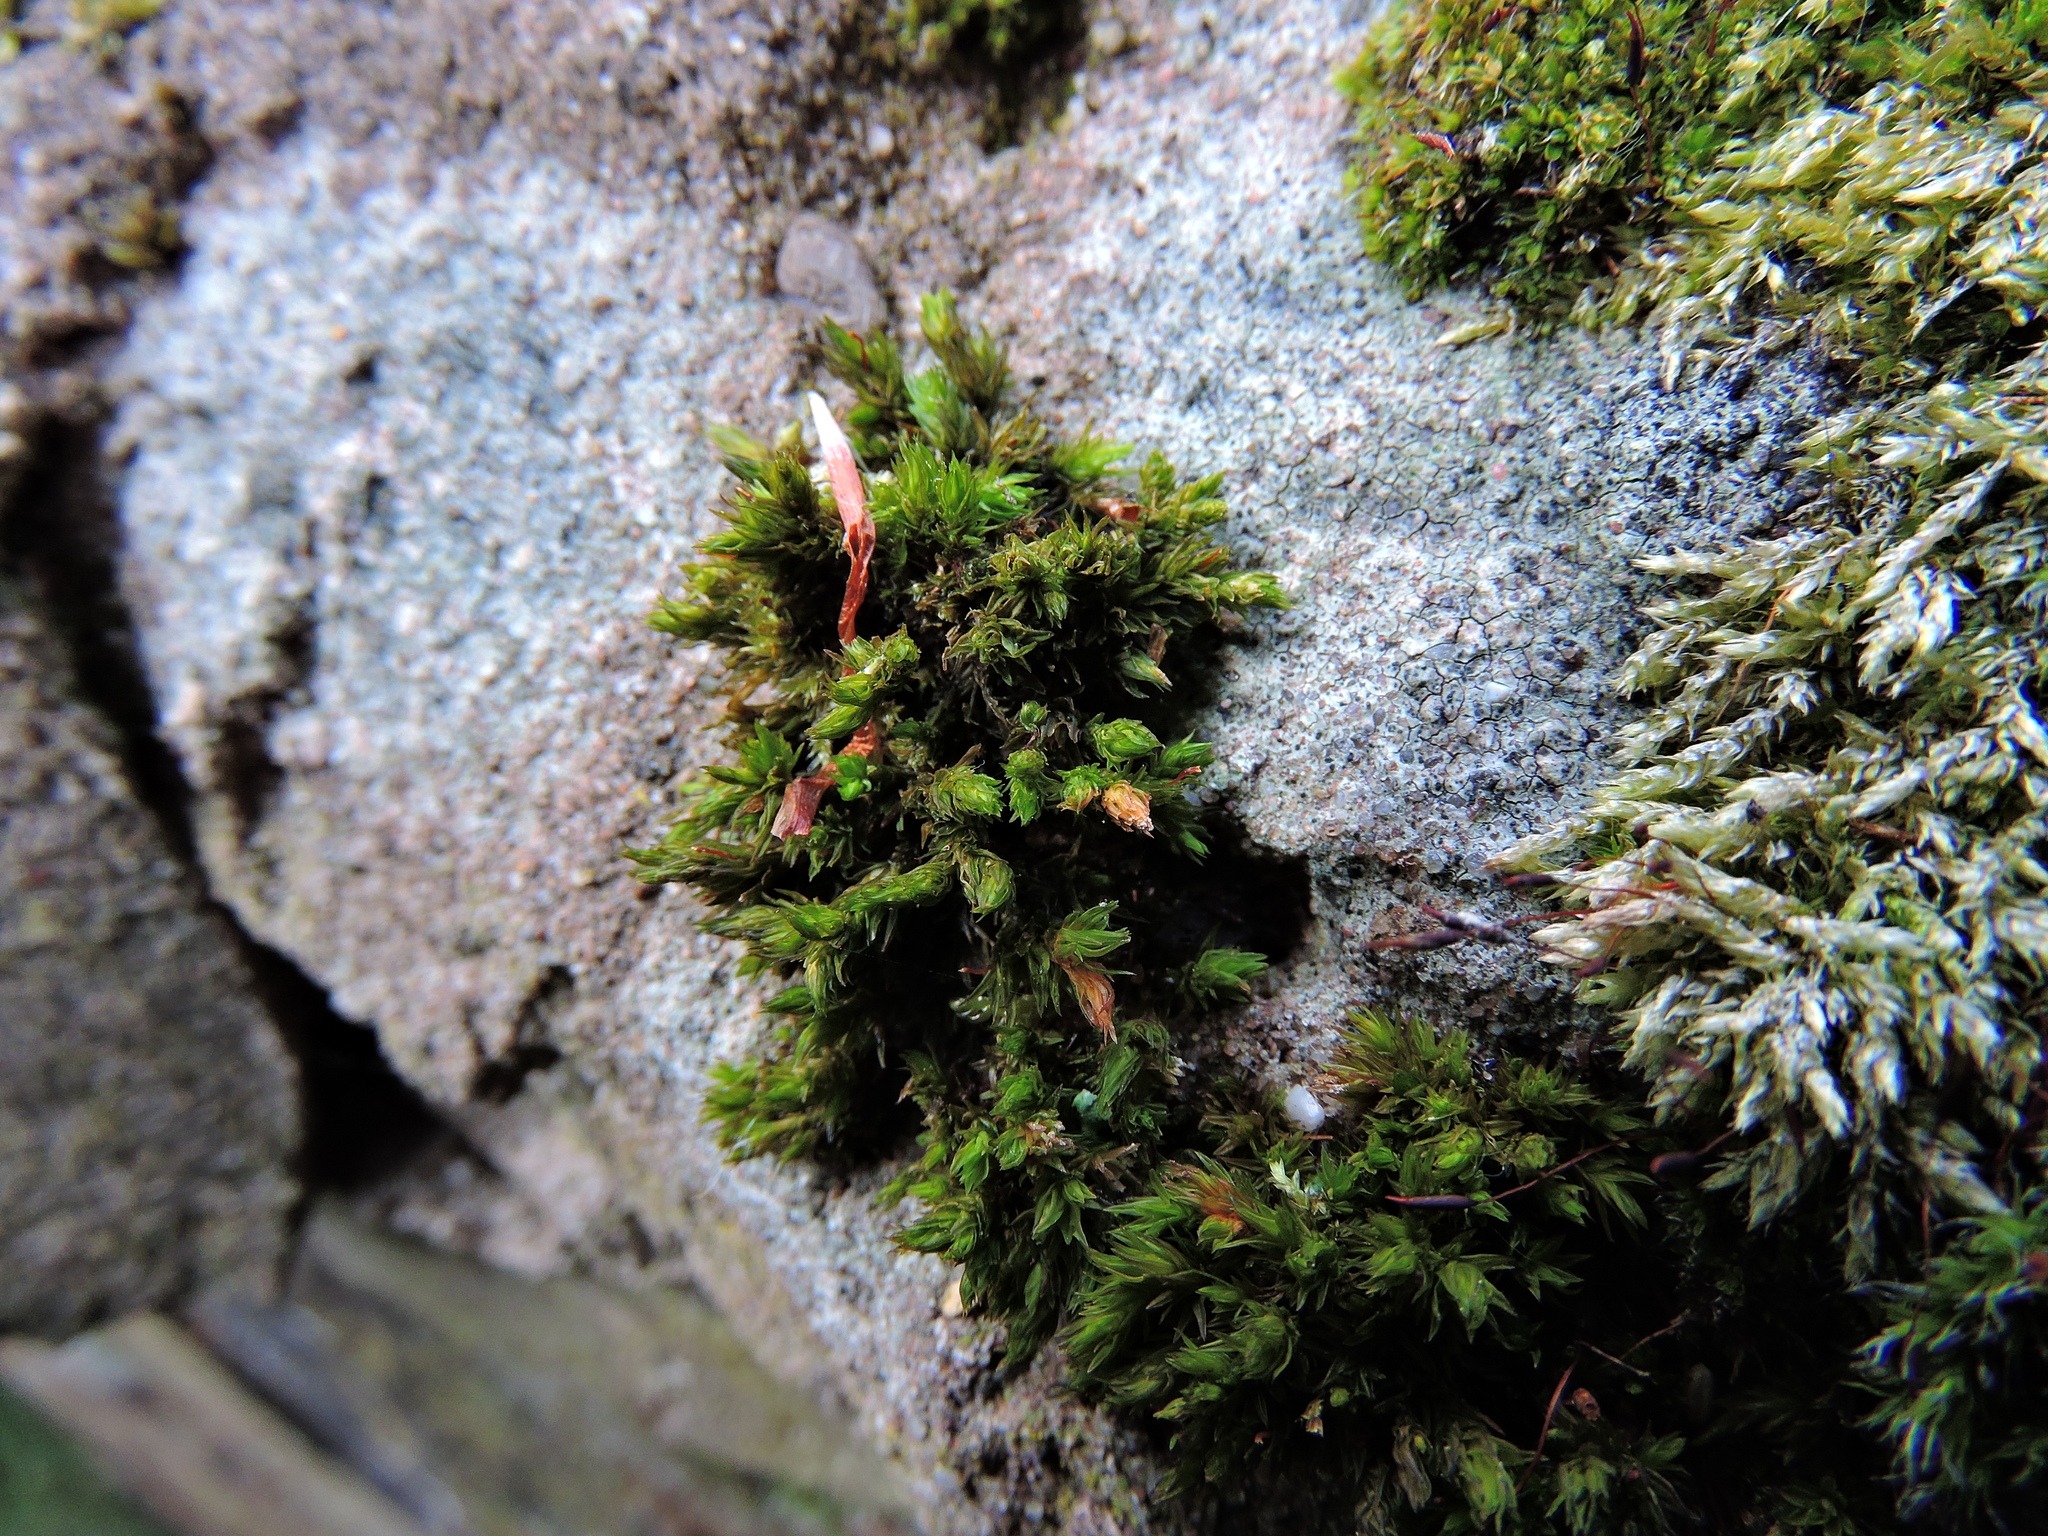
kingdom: Plantae
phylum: Bryophyta
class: Bryopsida
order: Orthotrichales
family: Orthotrichaceae
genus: Orthotrichum
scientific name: Orthotrichum anomalum
